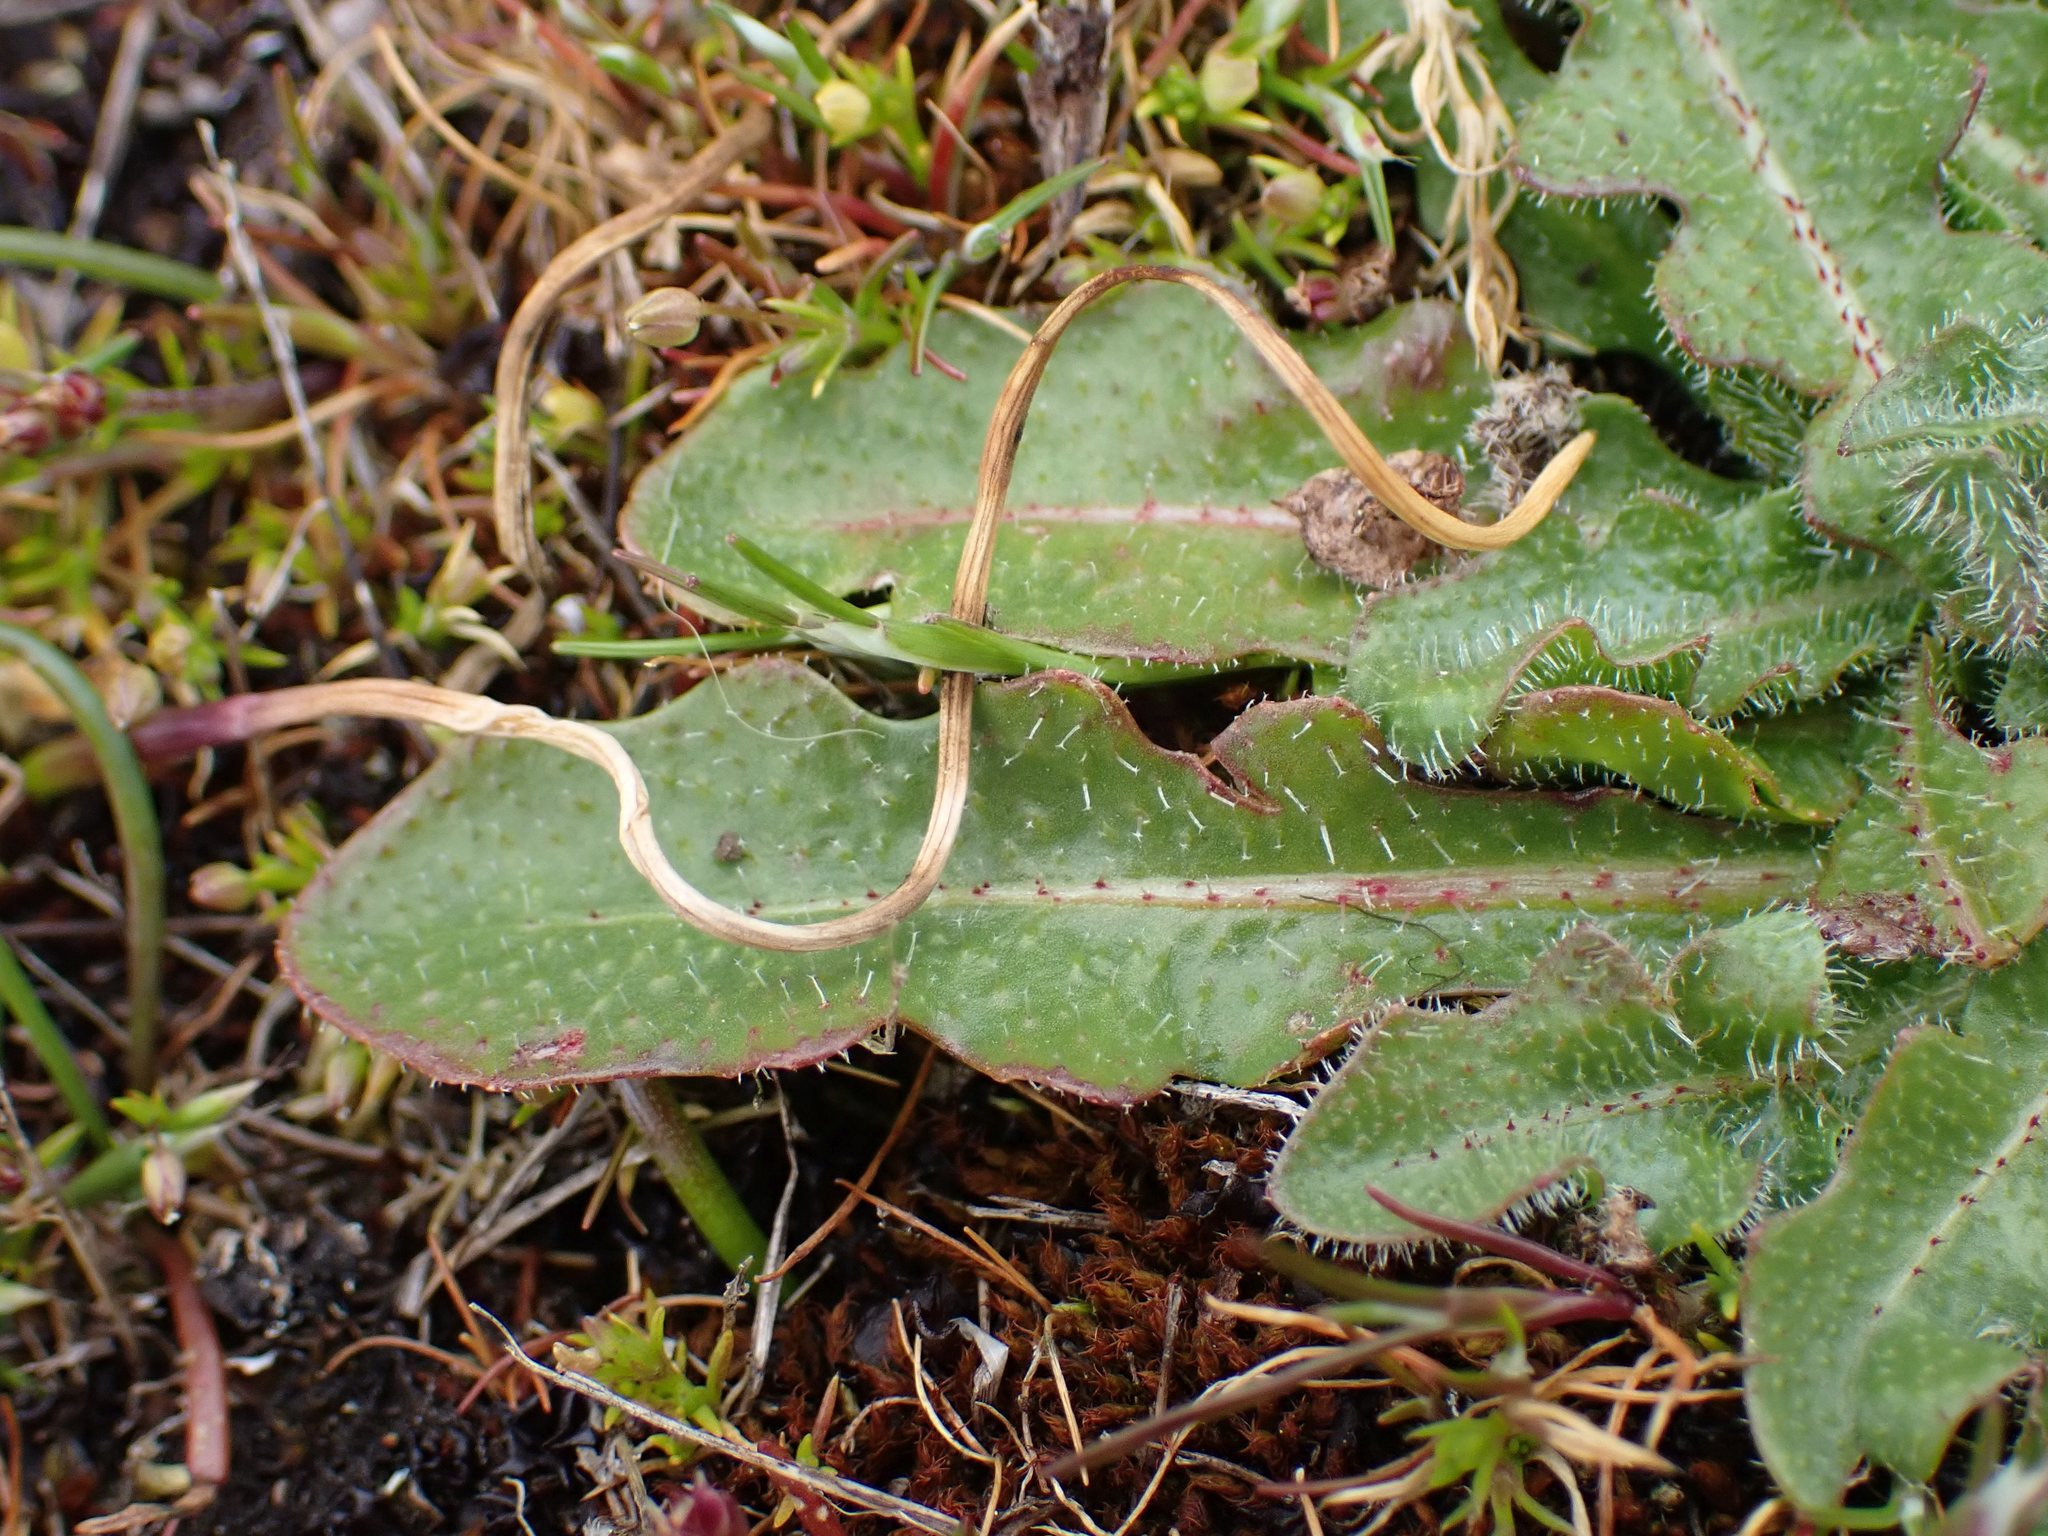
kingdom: Plantae
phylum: Tracheophyta
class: Magnoliopsida
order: Asterales
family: Asteraceae
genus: Hypochaeris
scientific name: Hypochaeris radicata
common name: Flatweed
